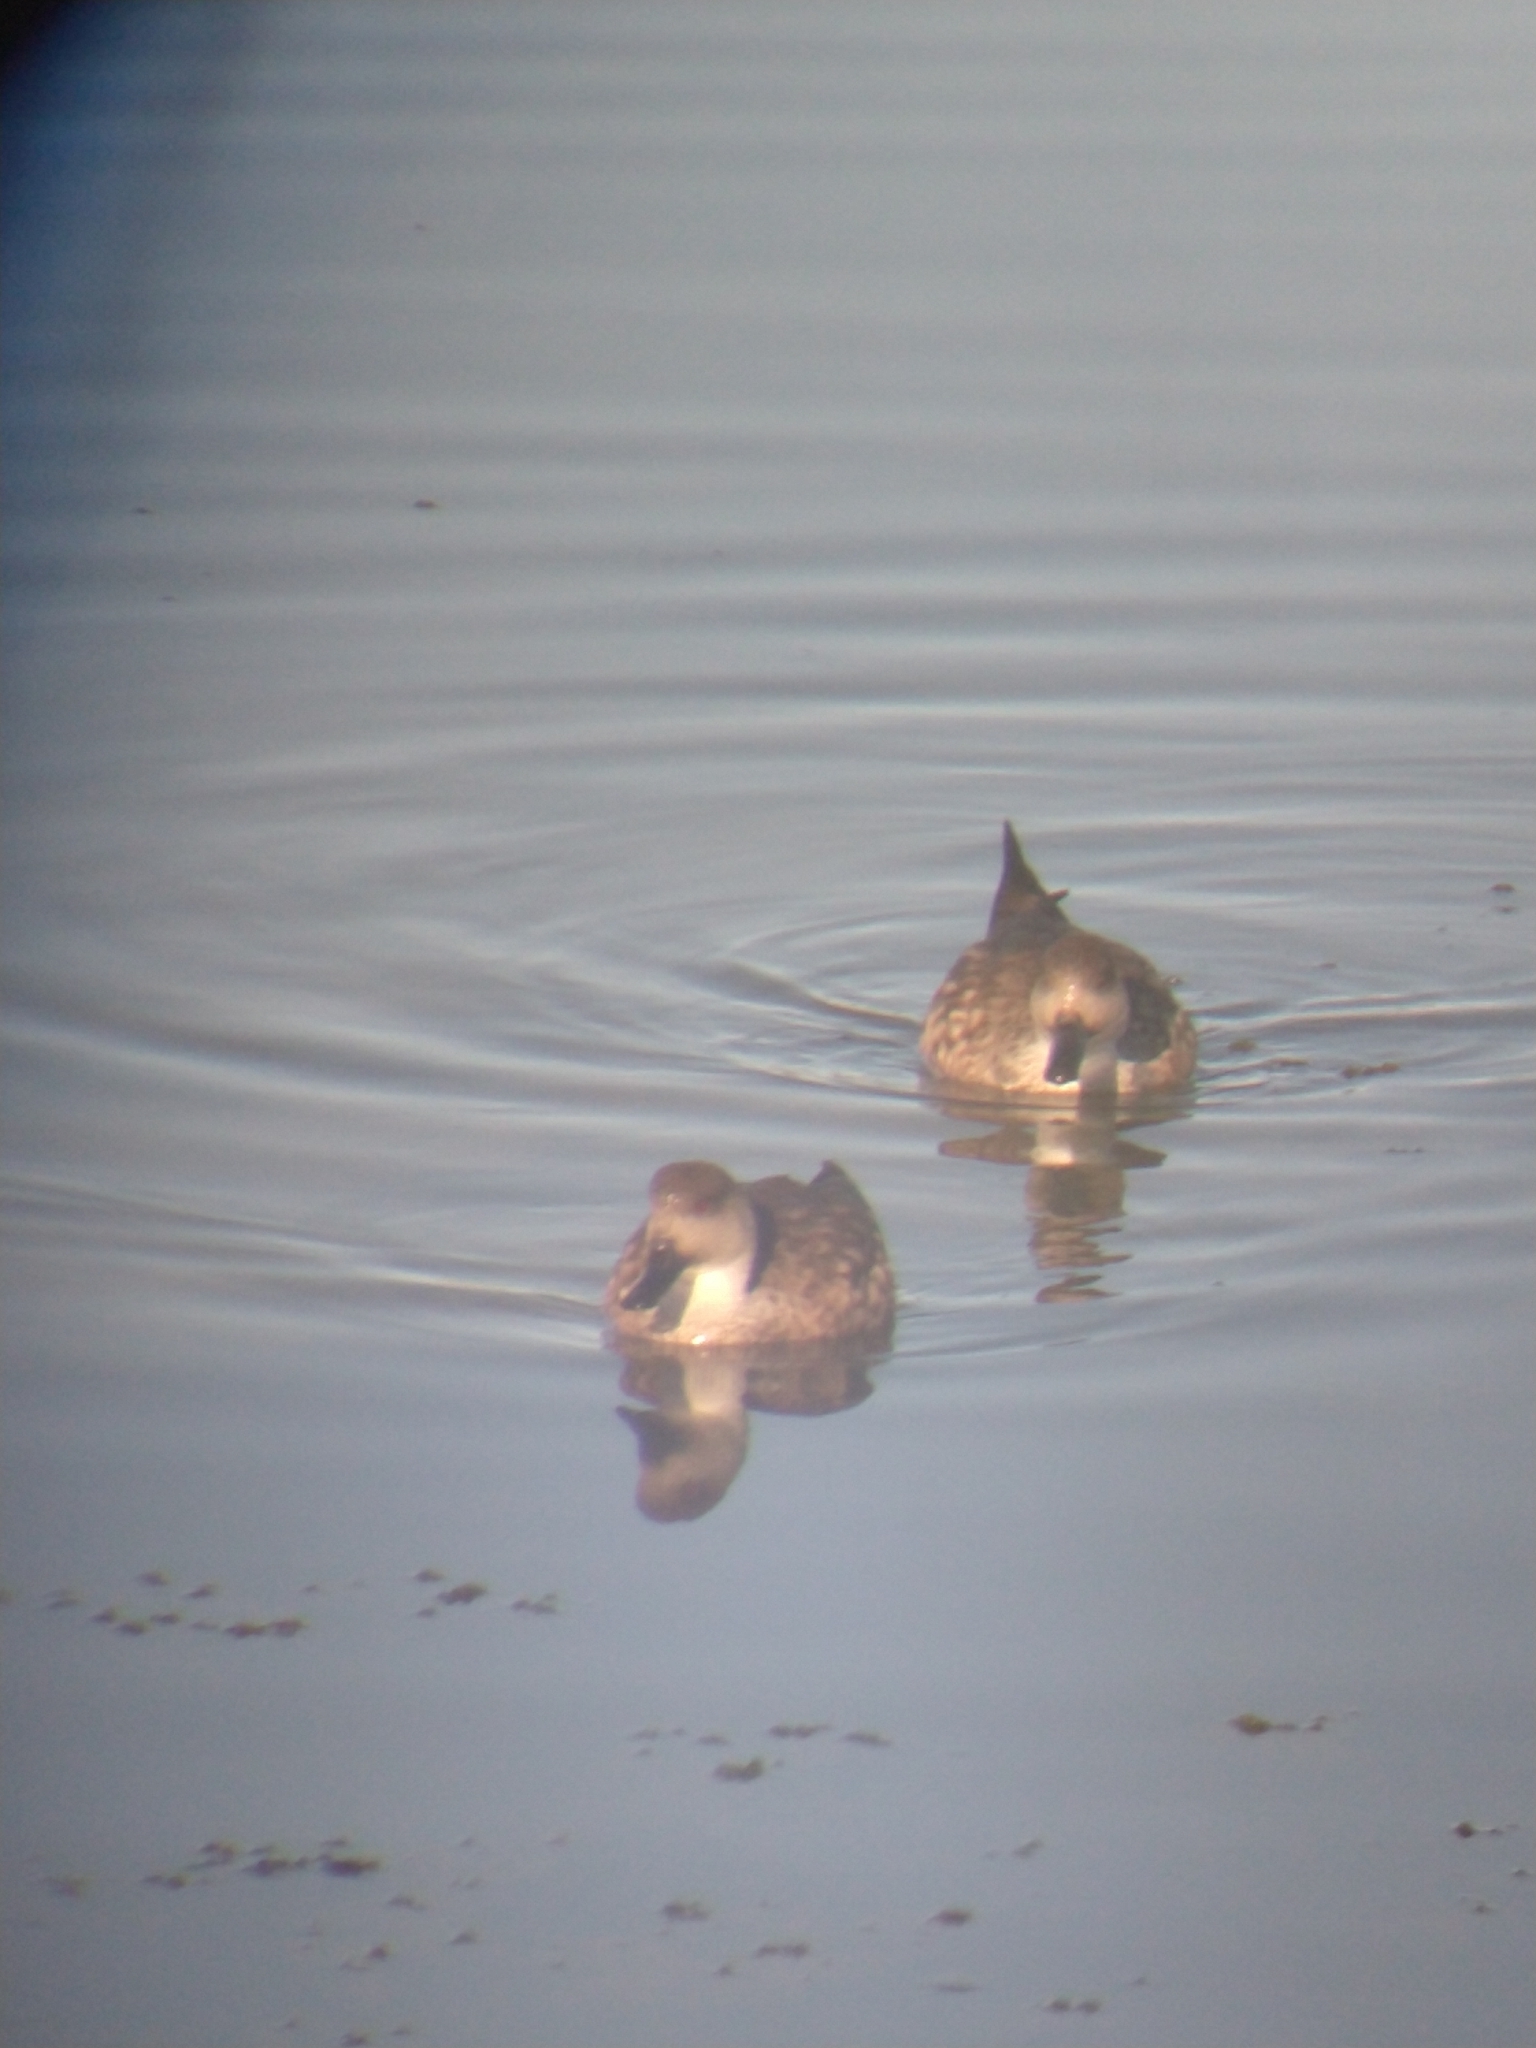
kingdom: Animalia
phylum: Chordata
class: Aves
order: Anseriformes
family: Anatidae
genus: Lophonetta
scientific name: Lophonetta specularioides
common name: Crested duck
